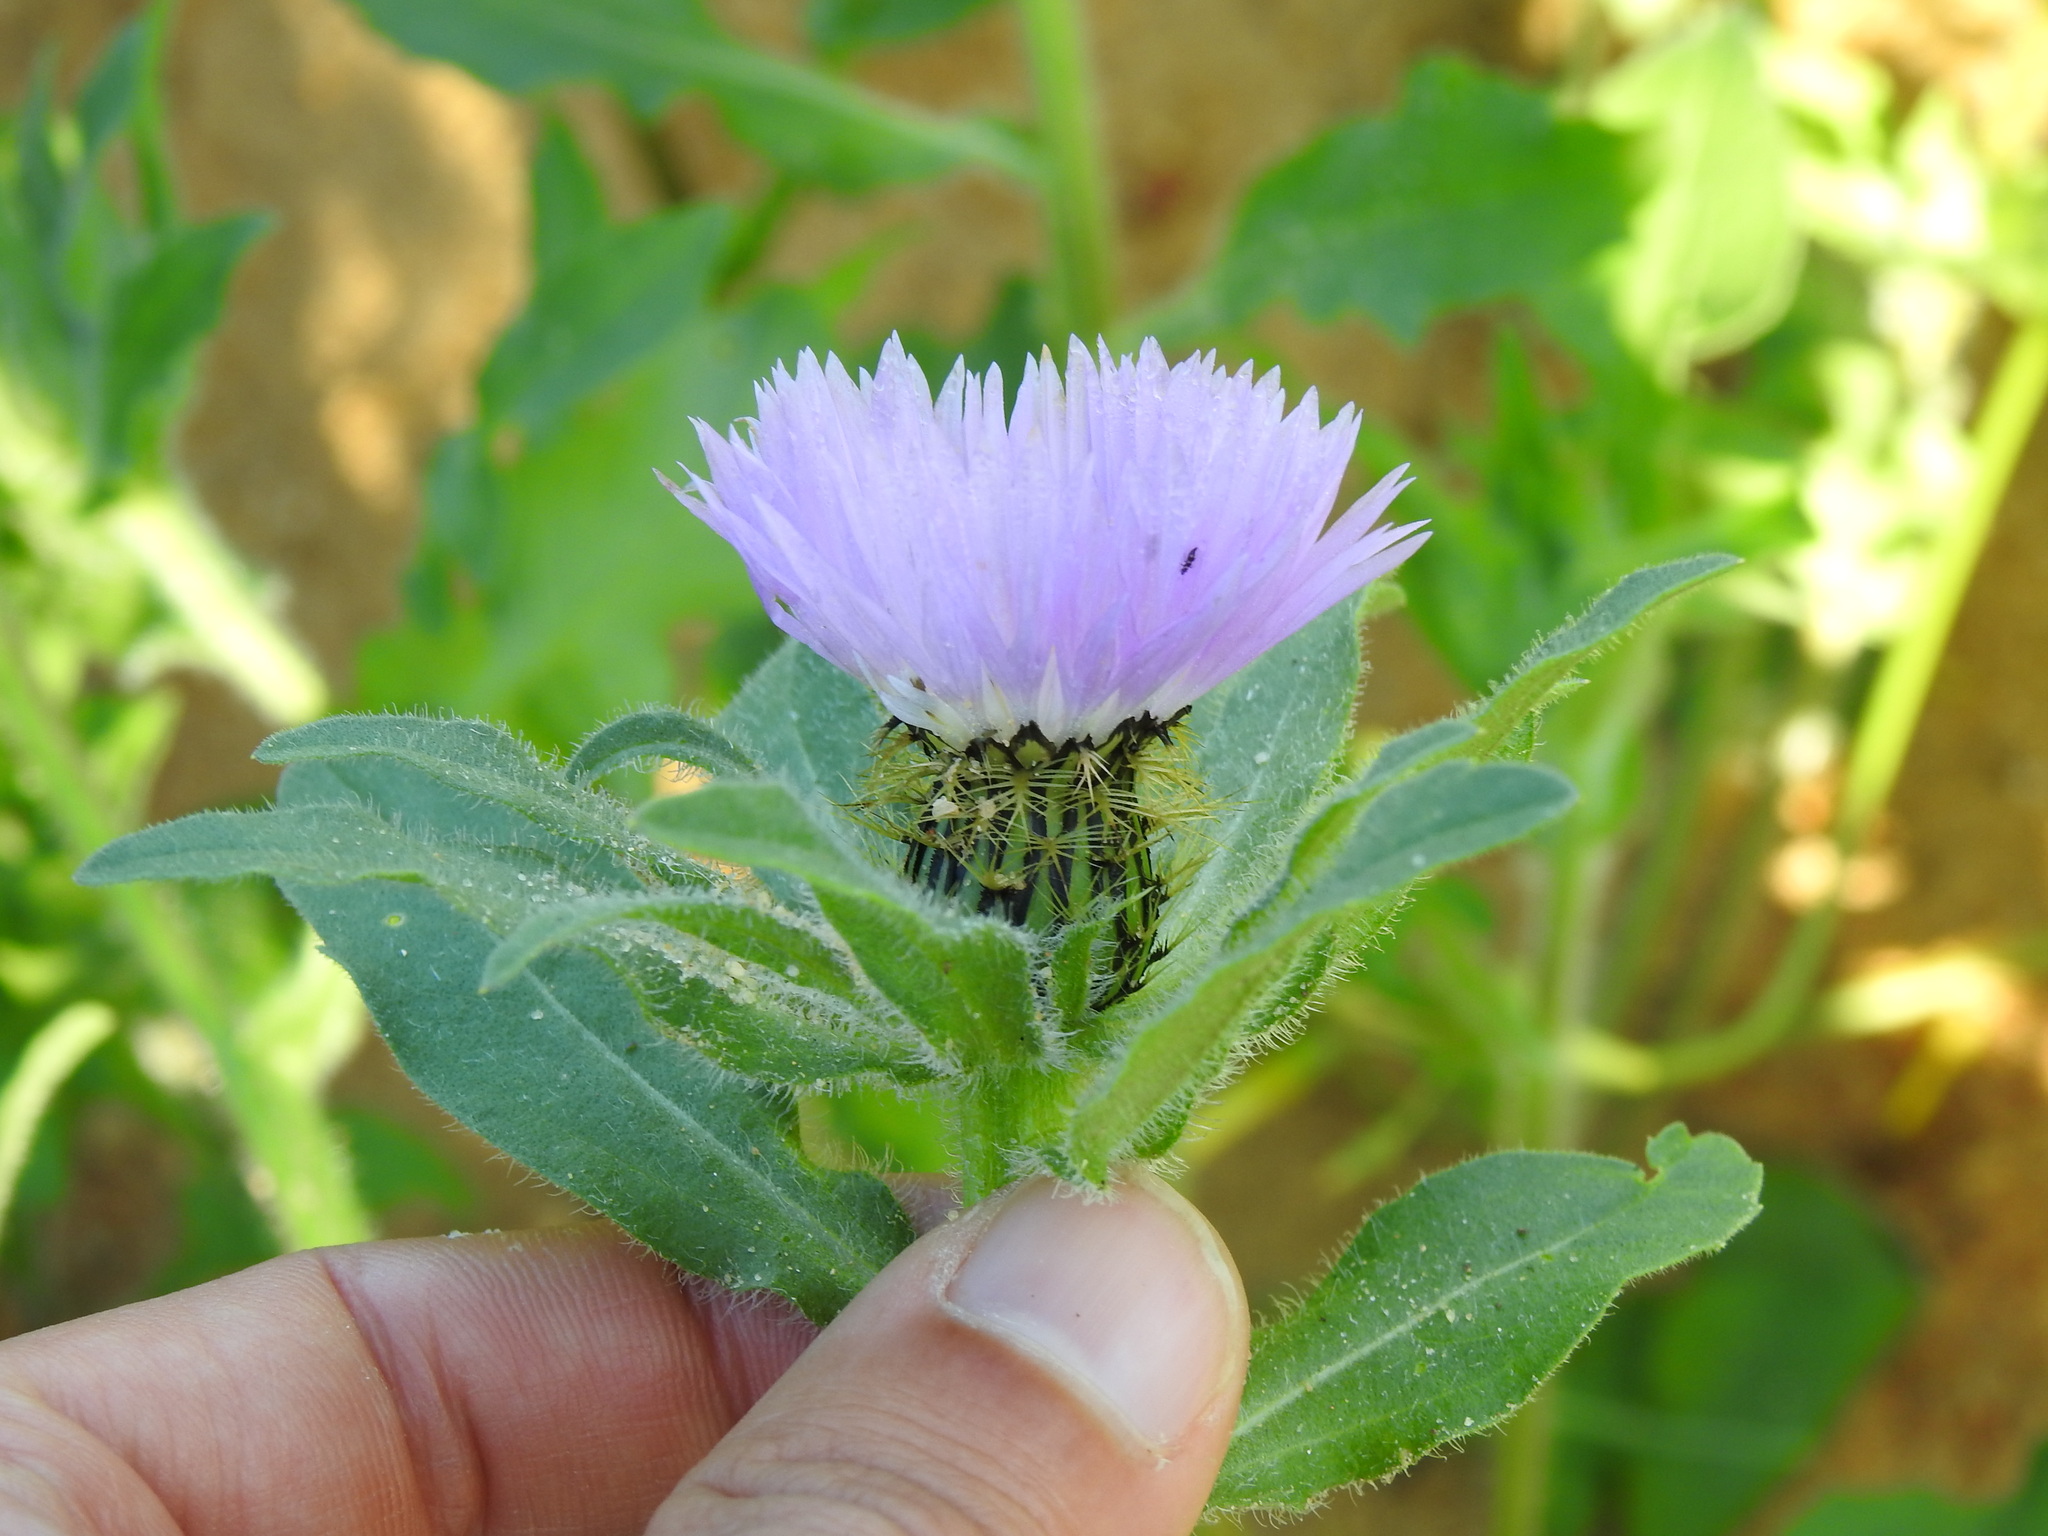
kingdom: Plantae
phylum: Tracheophyta
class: Magnoliopsida
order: Asterales
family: Asteraceae
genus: Centaurea
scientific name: Centaurea pullata
